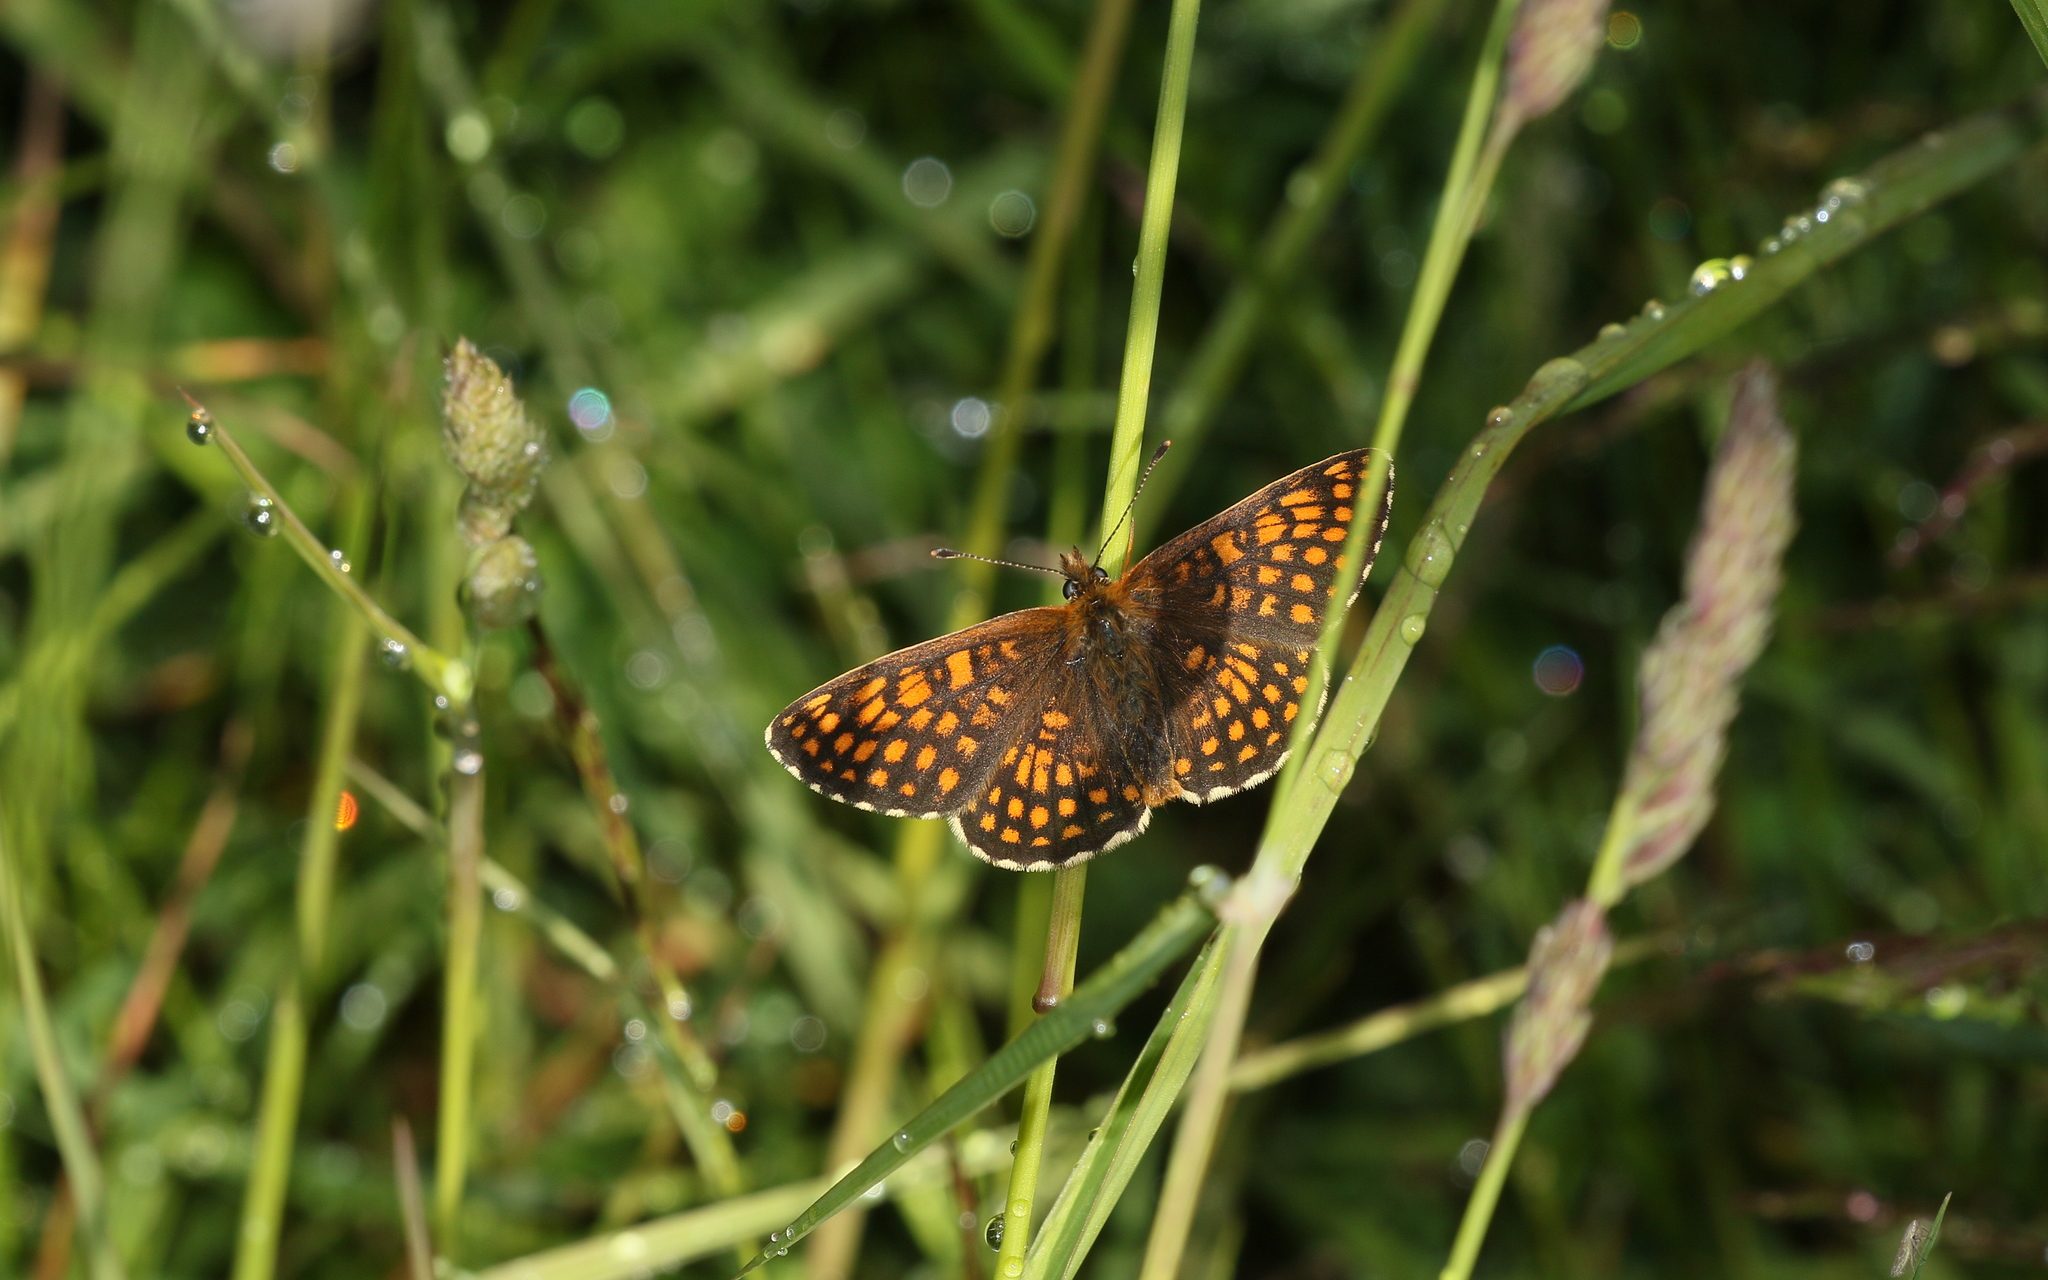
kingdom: Animalia
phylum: Arthropoda
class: Insecta
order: Lepidoptera
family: Nymphalidae
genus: Melitaea
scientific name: Melitaea athalia
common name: Heath fritillary
